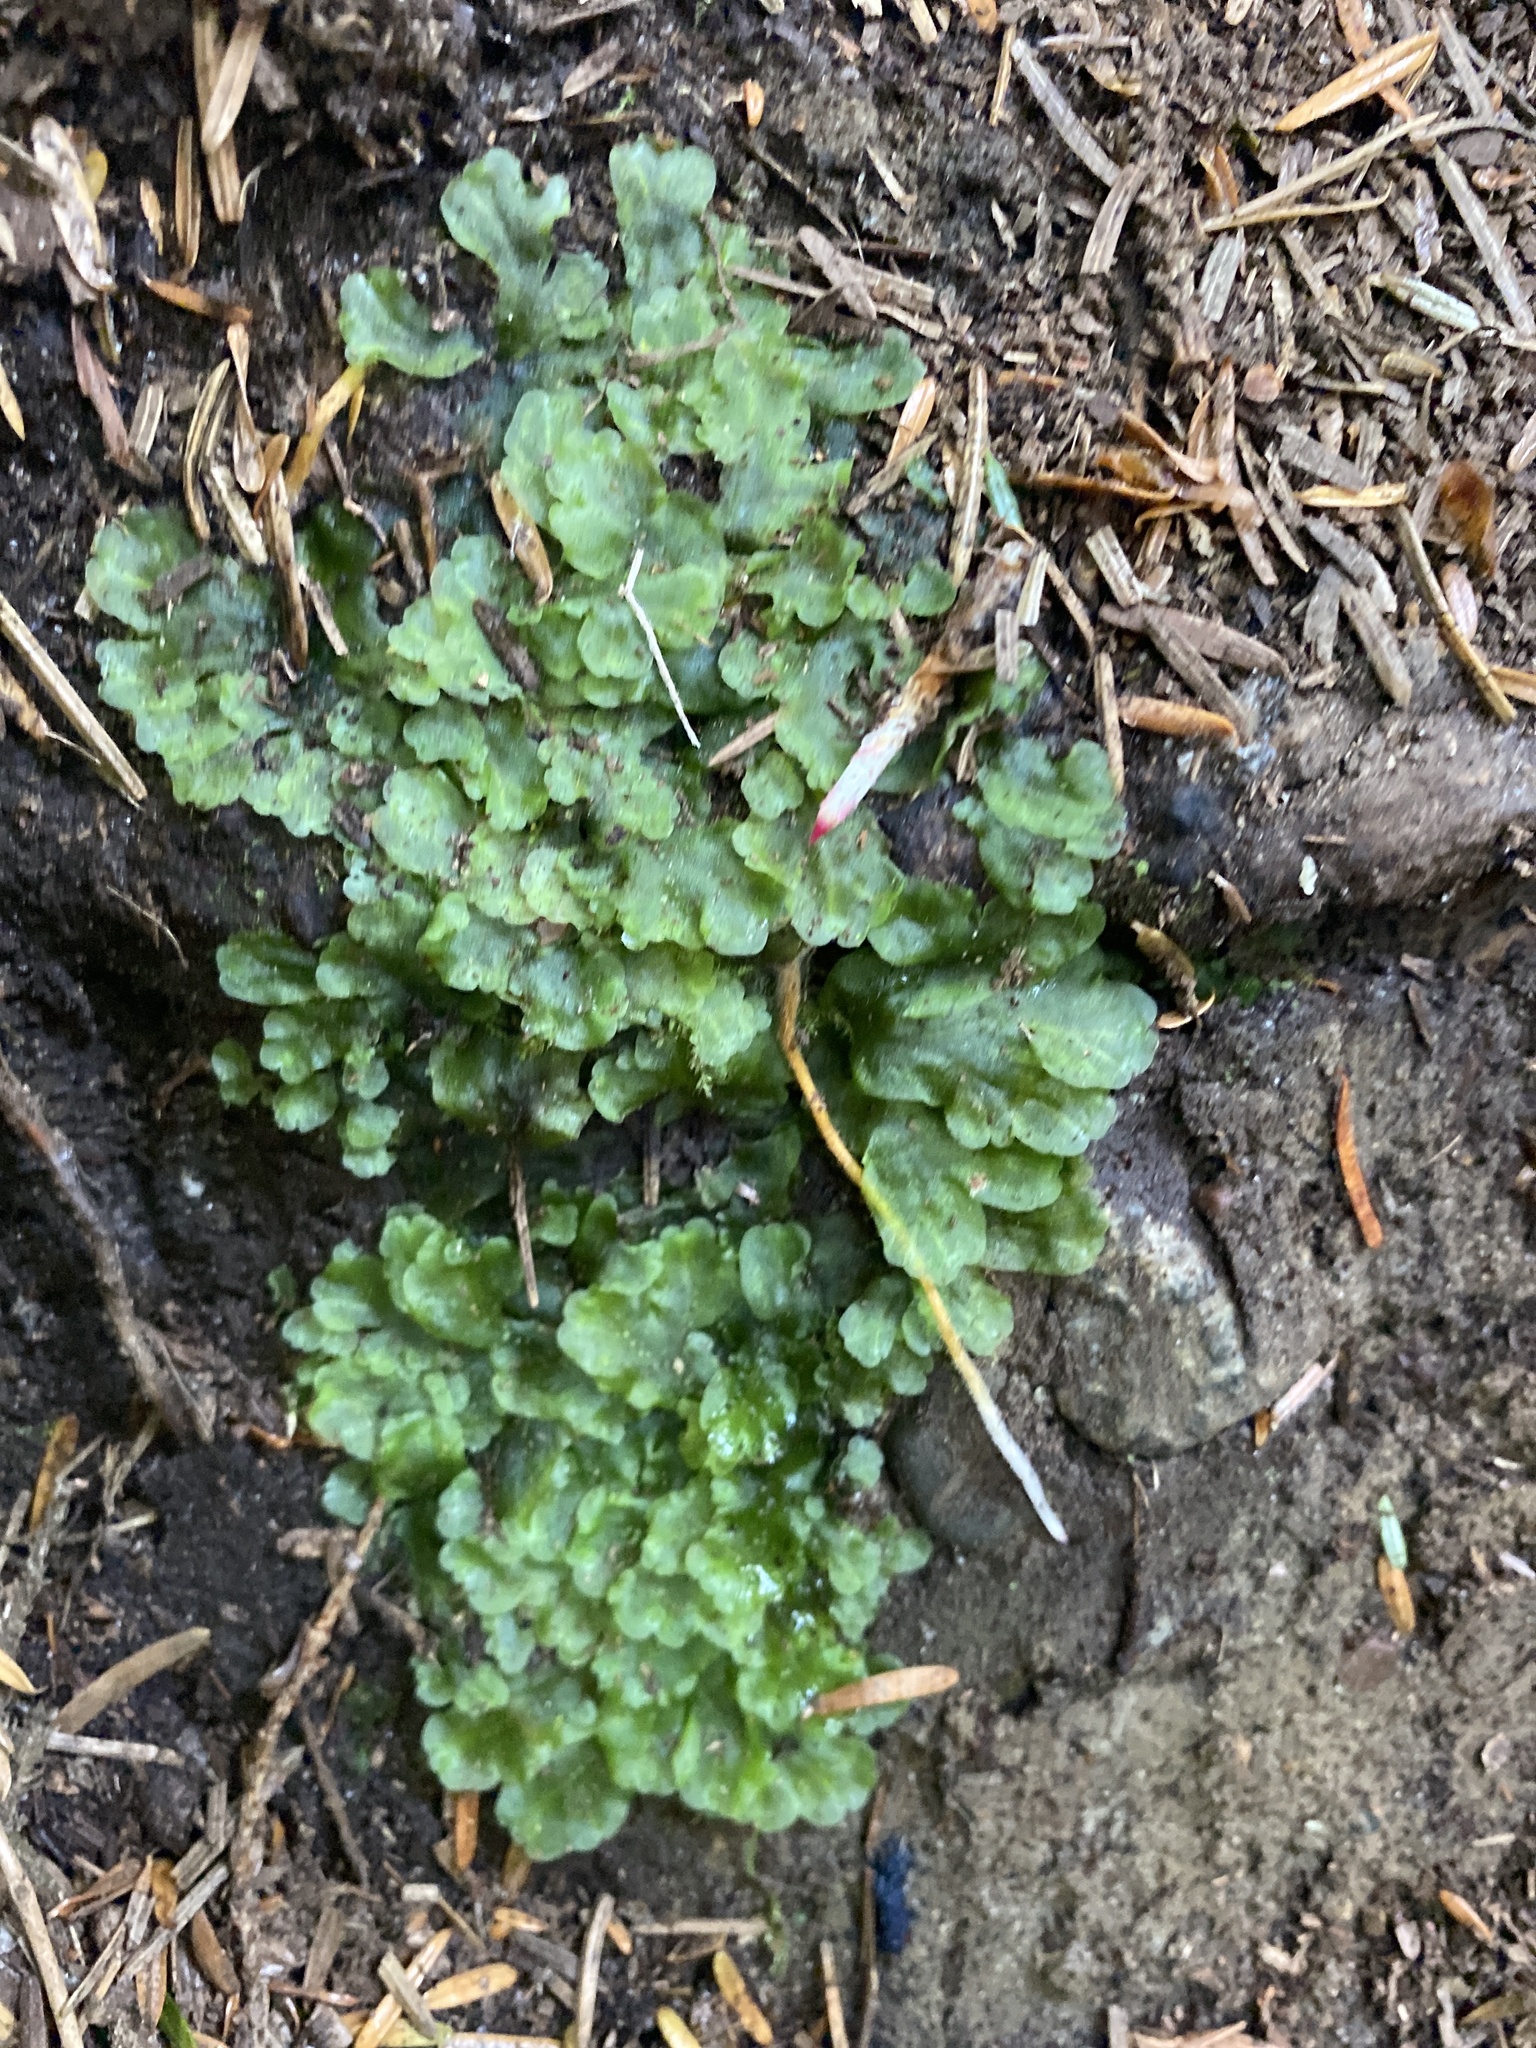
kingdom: Plantae
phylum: Marchantiophyta
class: Jungermanniopsida
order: Pelliales
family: Pelliaceae
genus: Pellia
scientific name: Pellia neesiana
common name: Nees  pellia
